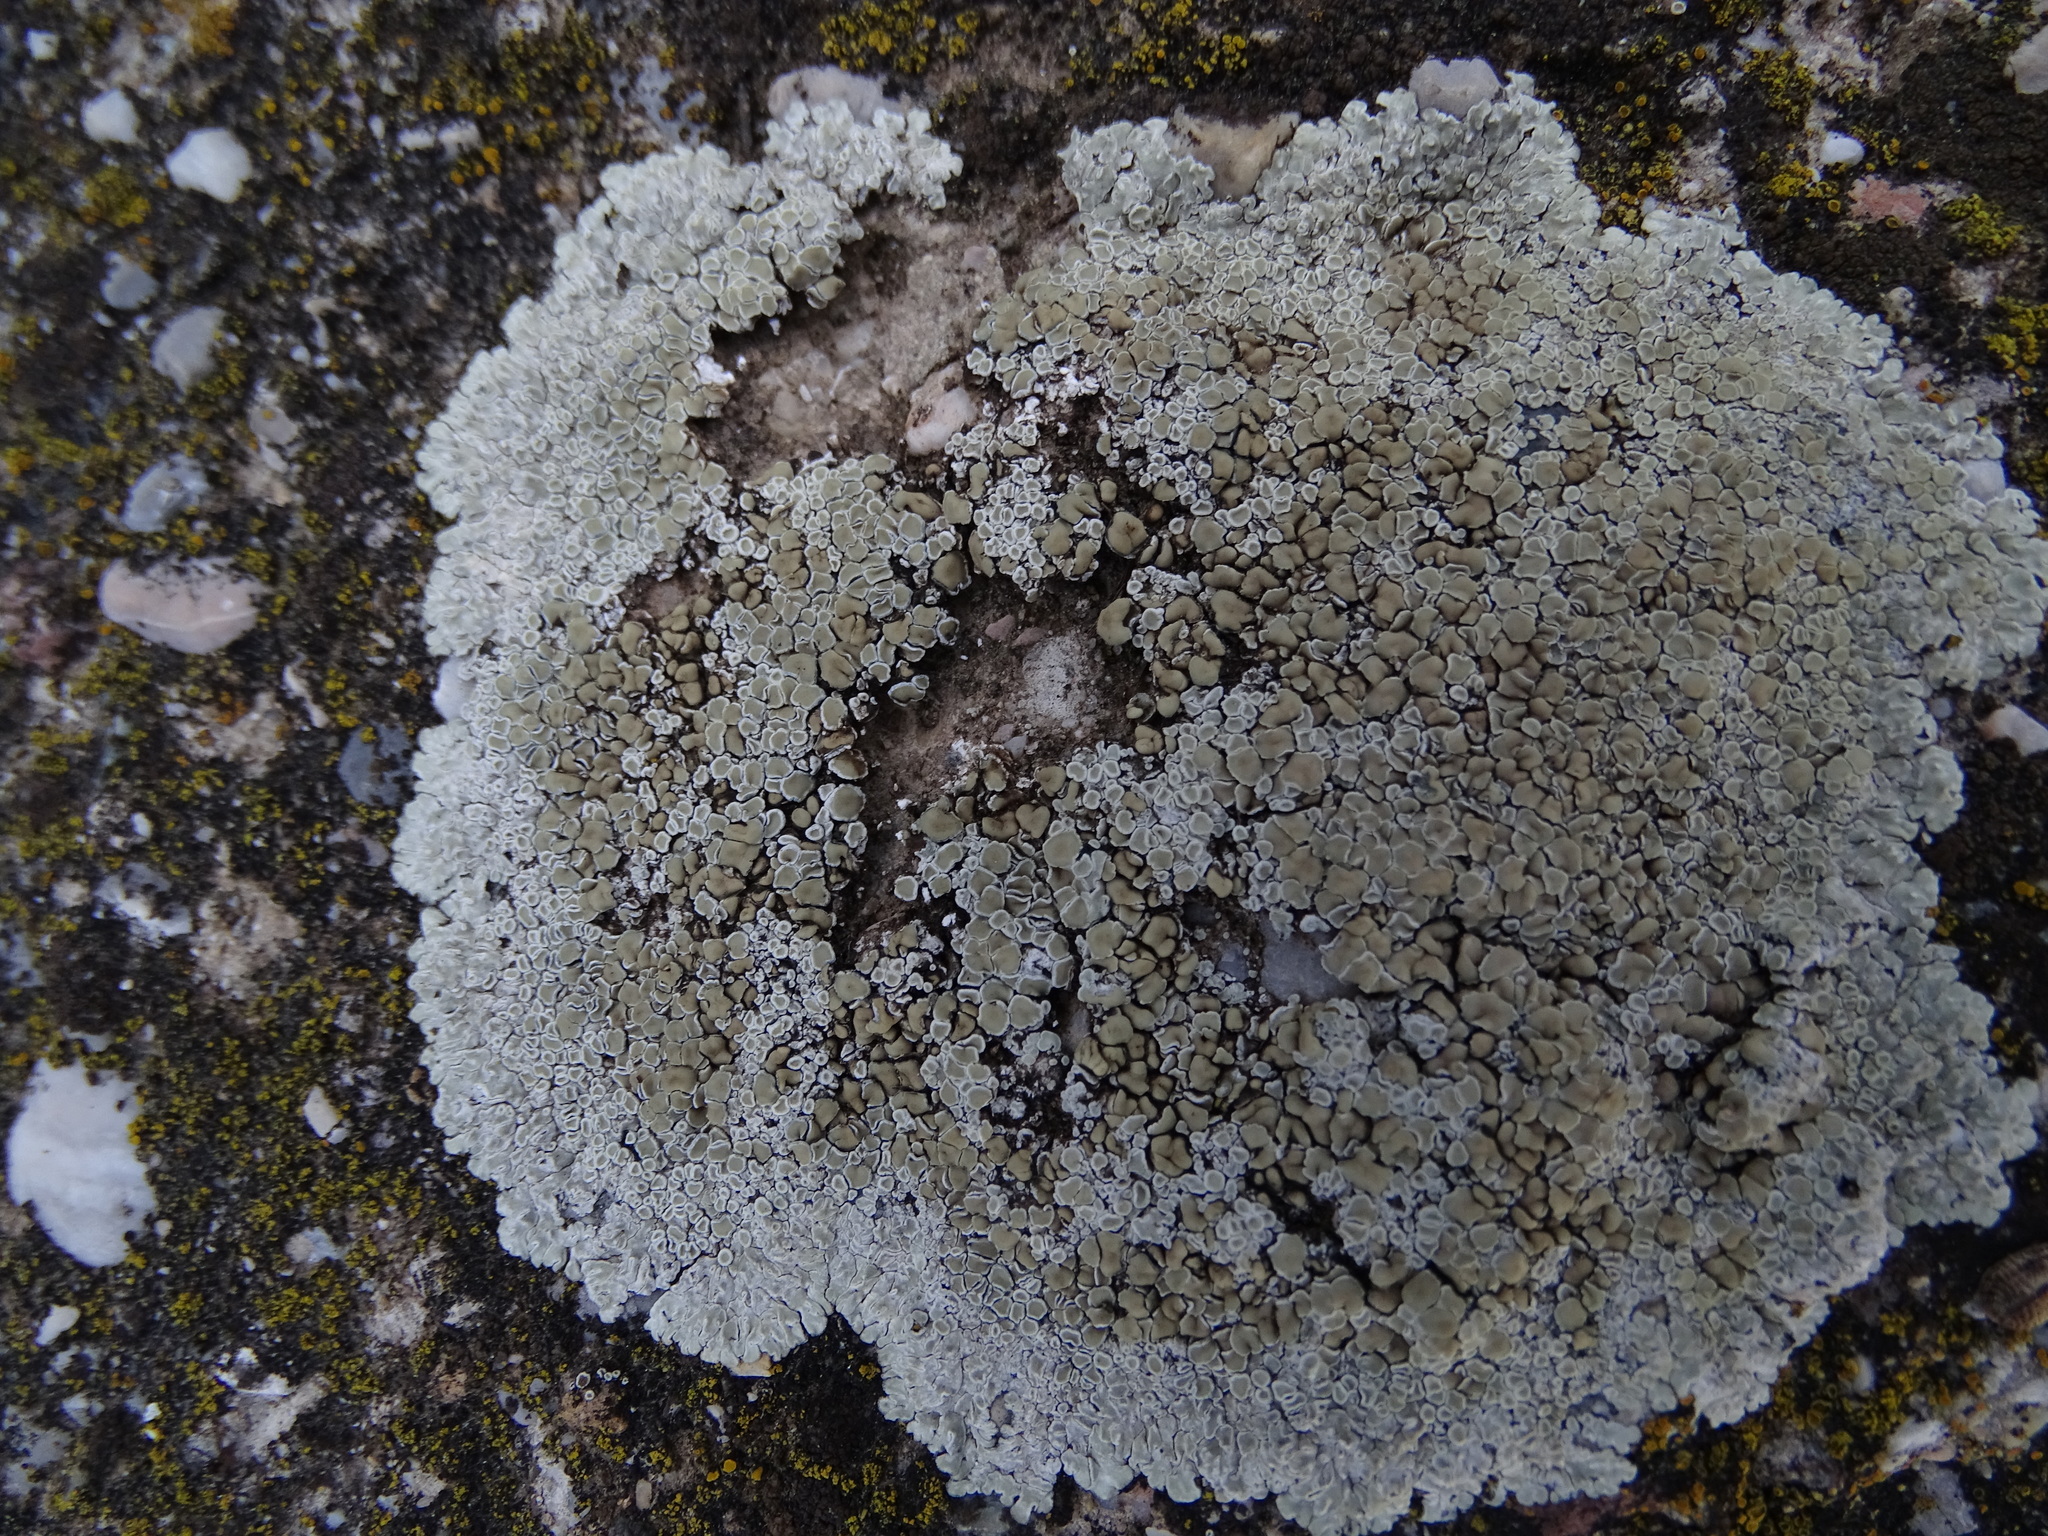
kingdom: Fungi
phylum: Ascomycota
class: Lecanoromycetes
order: Lecanorales
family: Lecanoraceae
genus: Protoparmeliopsis
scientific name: Protoparmeliopsis muralis
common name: Stonewall rim lichen
